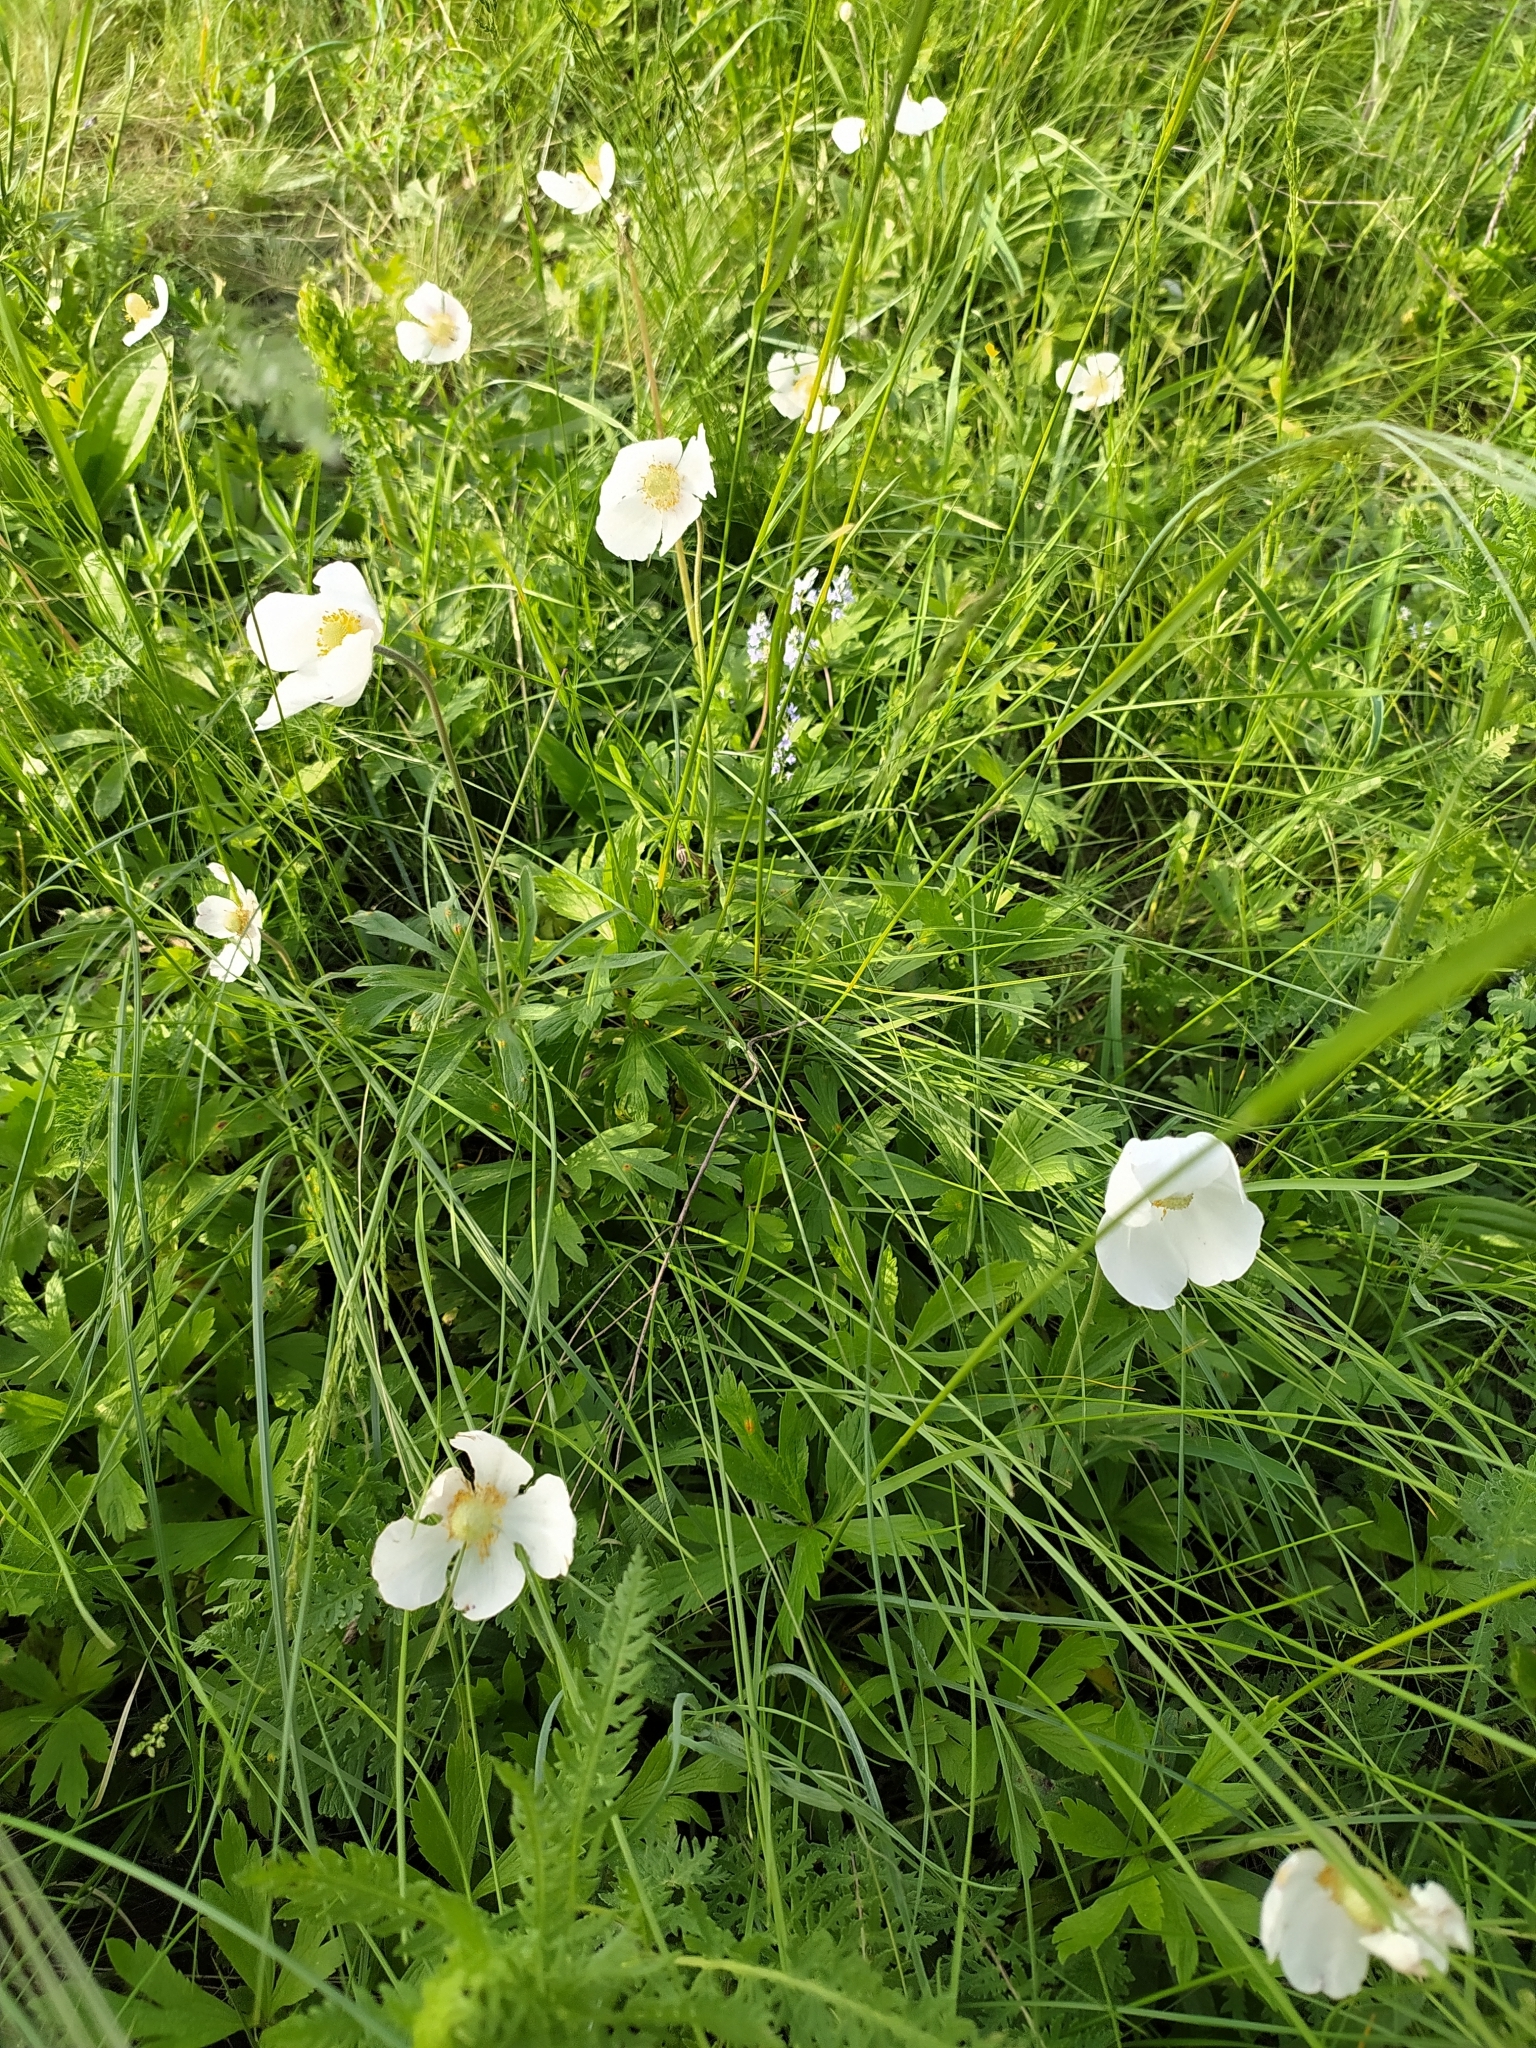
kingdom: Plantae
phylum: Tracheophyta
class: Magnoliopsida
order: Ranunculales
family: Ranunculaceae
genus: Anemone
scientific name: Anemone sylvestris
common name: Snowdrop anemone
